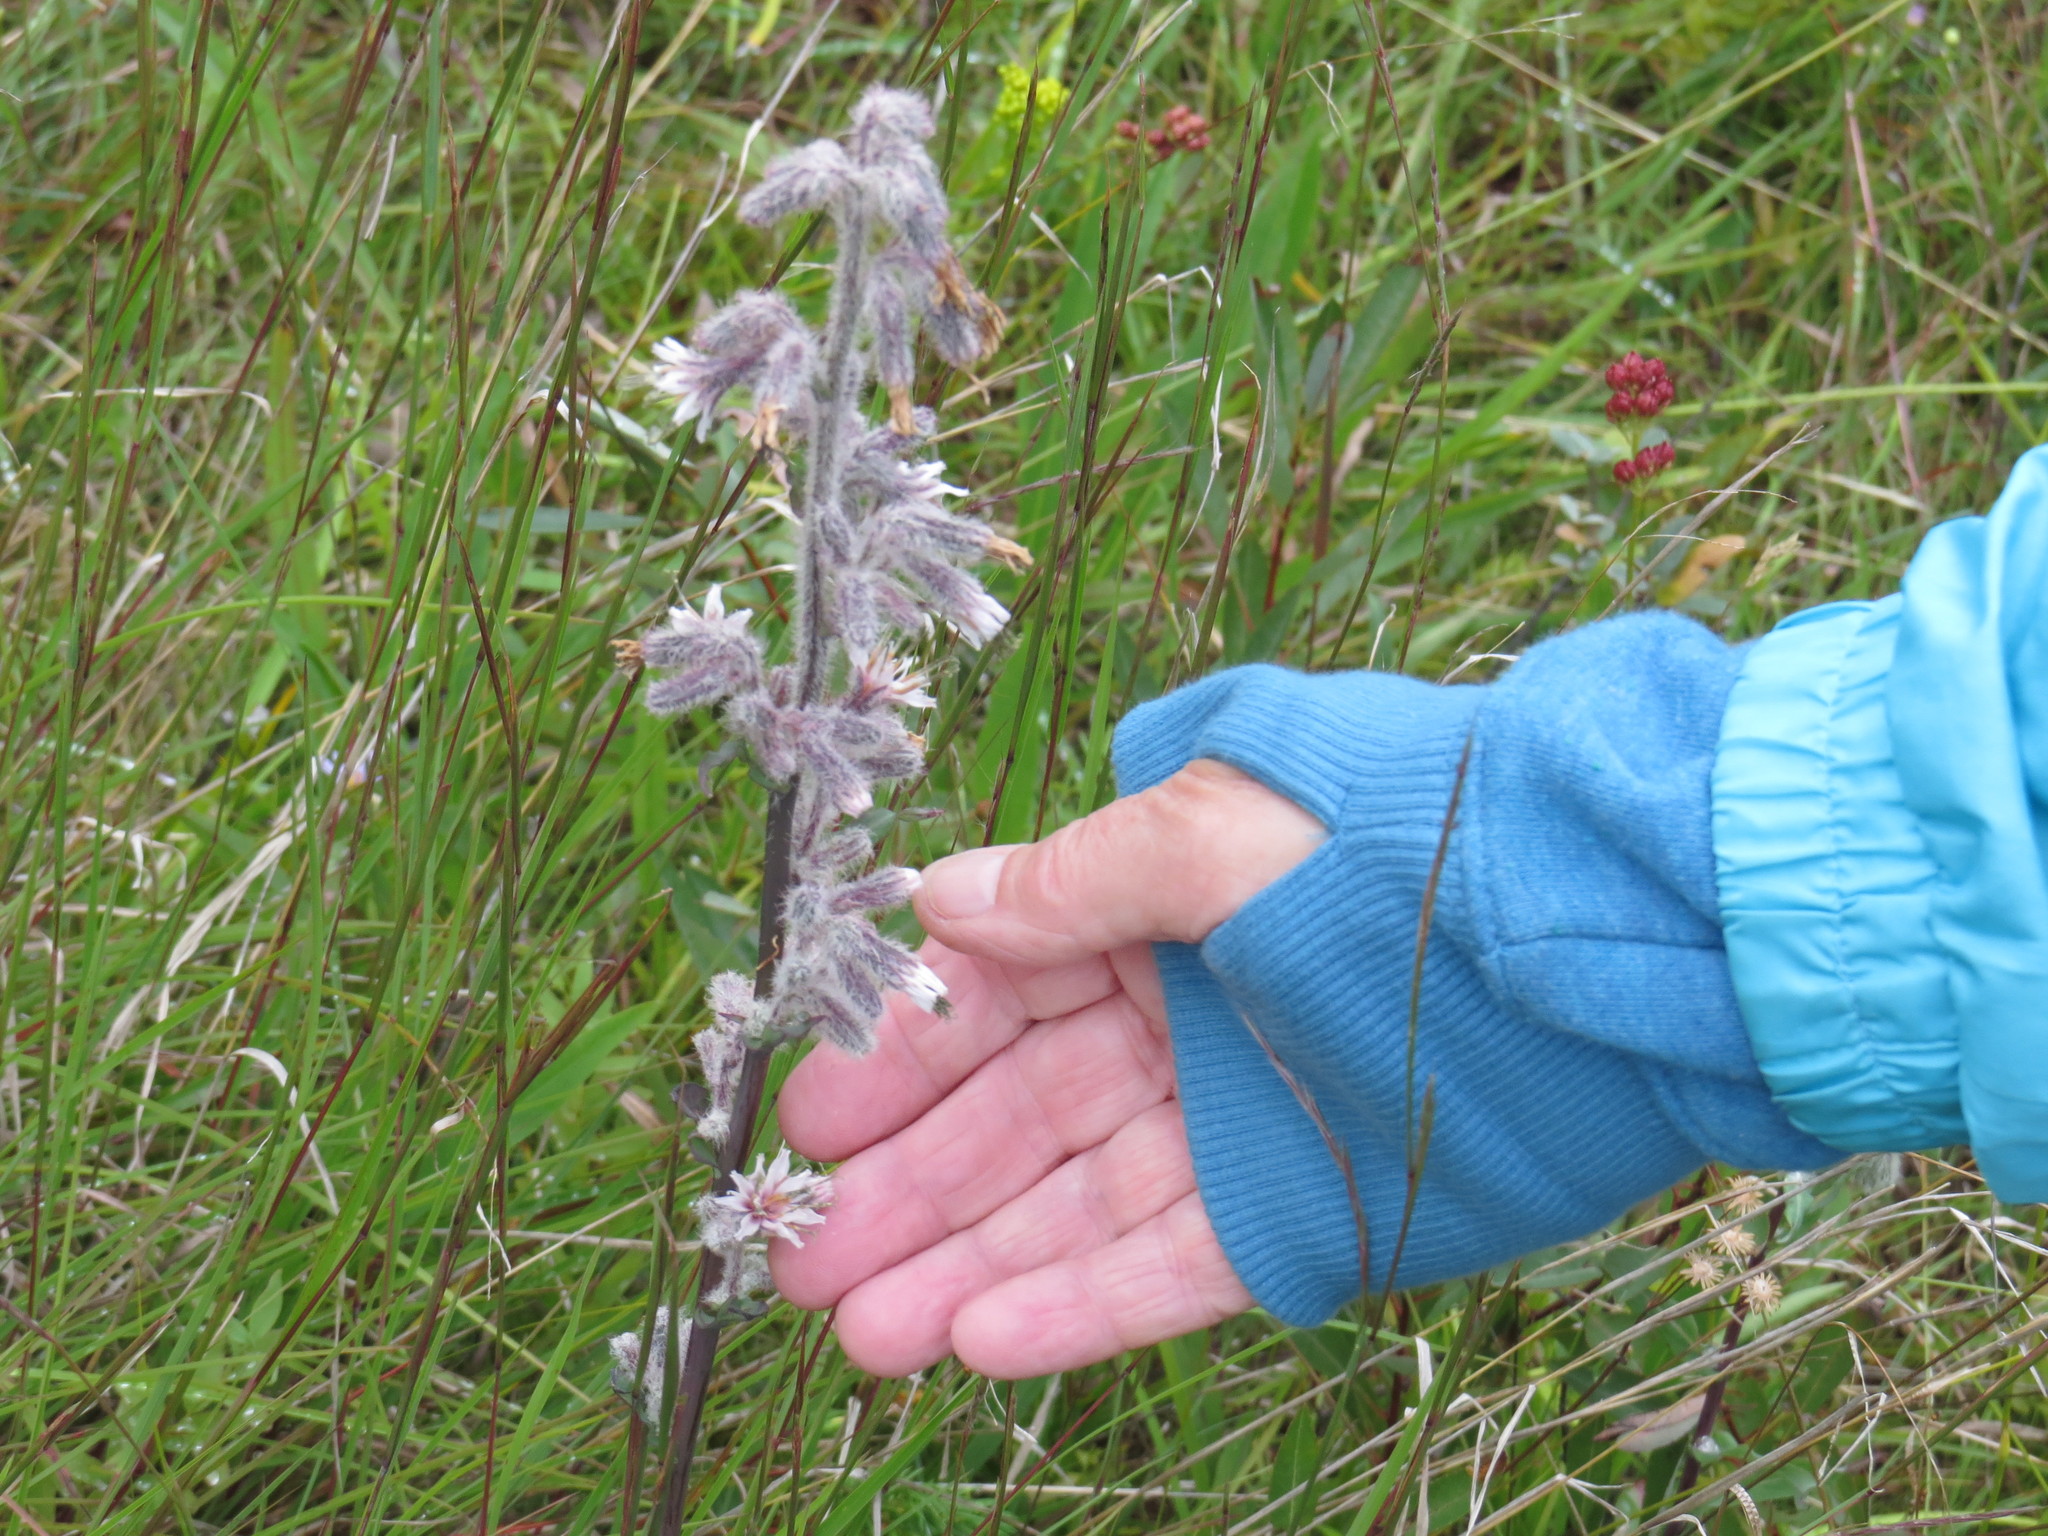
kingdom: Plantae
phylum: Tracheophyta
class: Magnoliopsida
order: Asterales
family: Asteraceae
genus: Nabalus
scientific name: Nabalus racemosus
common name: Glaucous white lettuce
